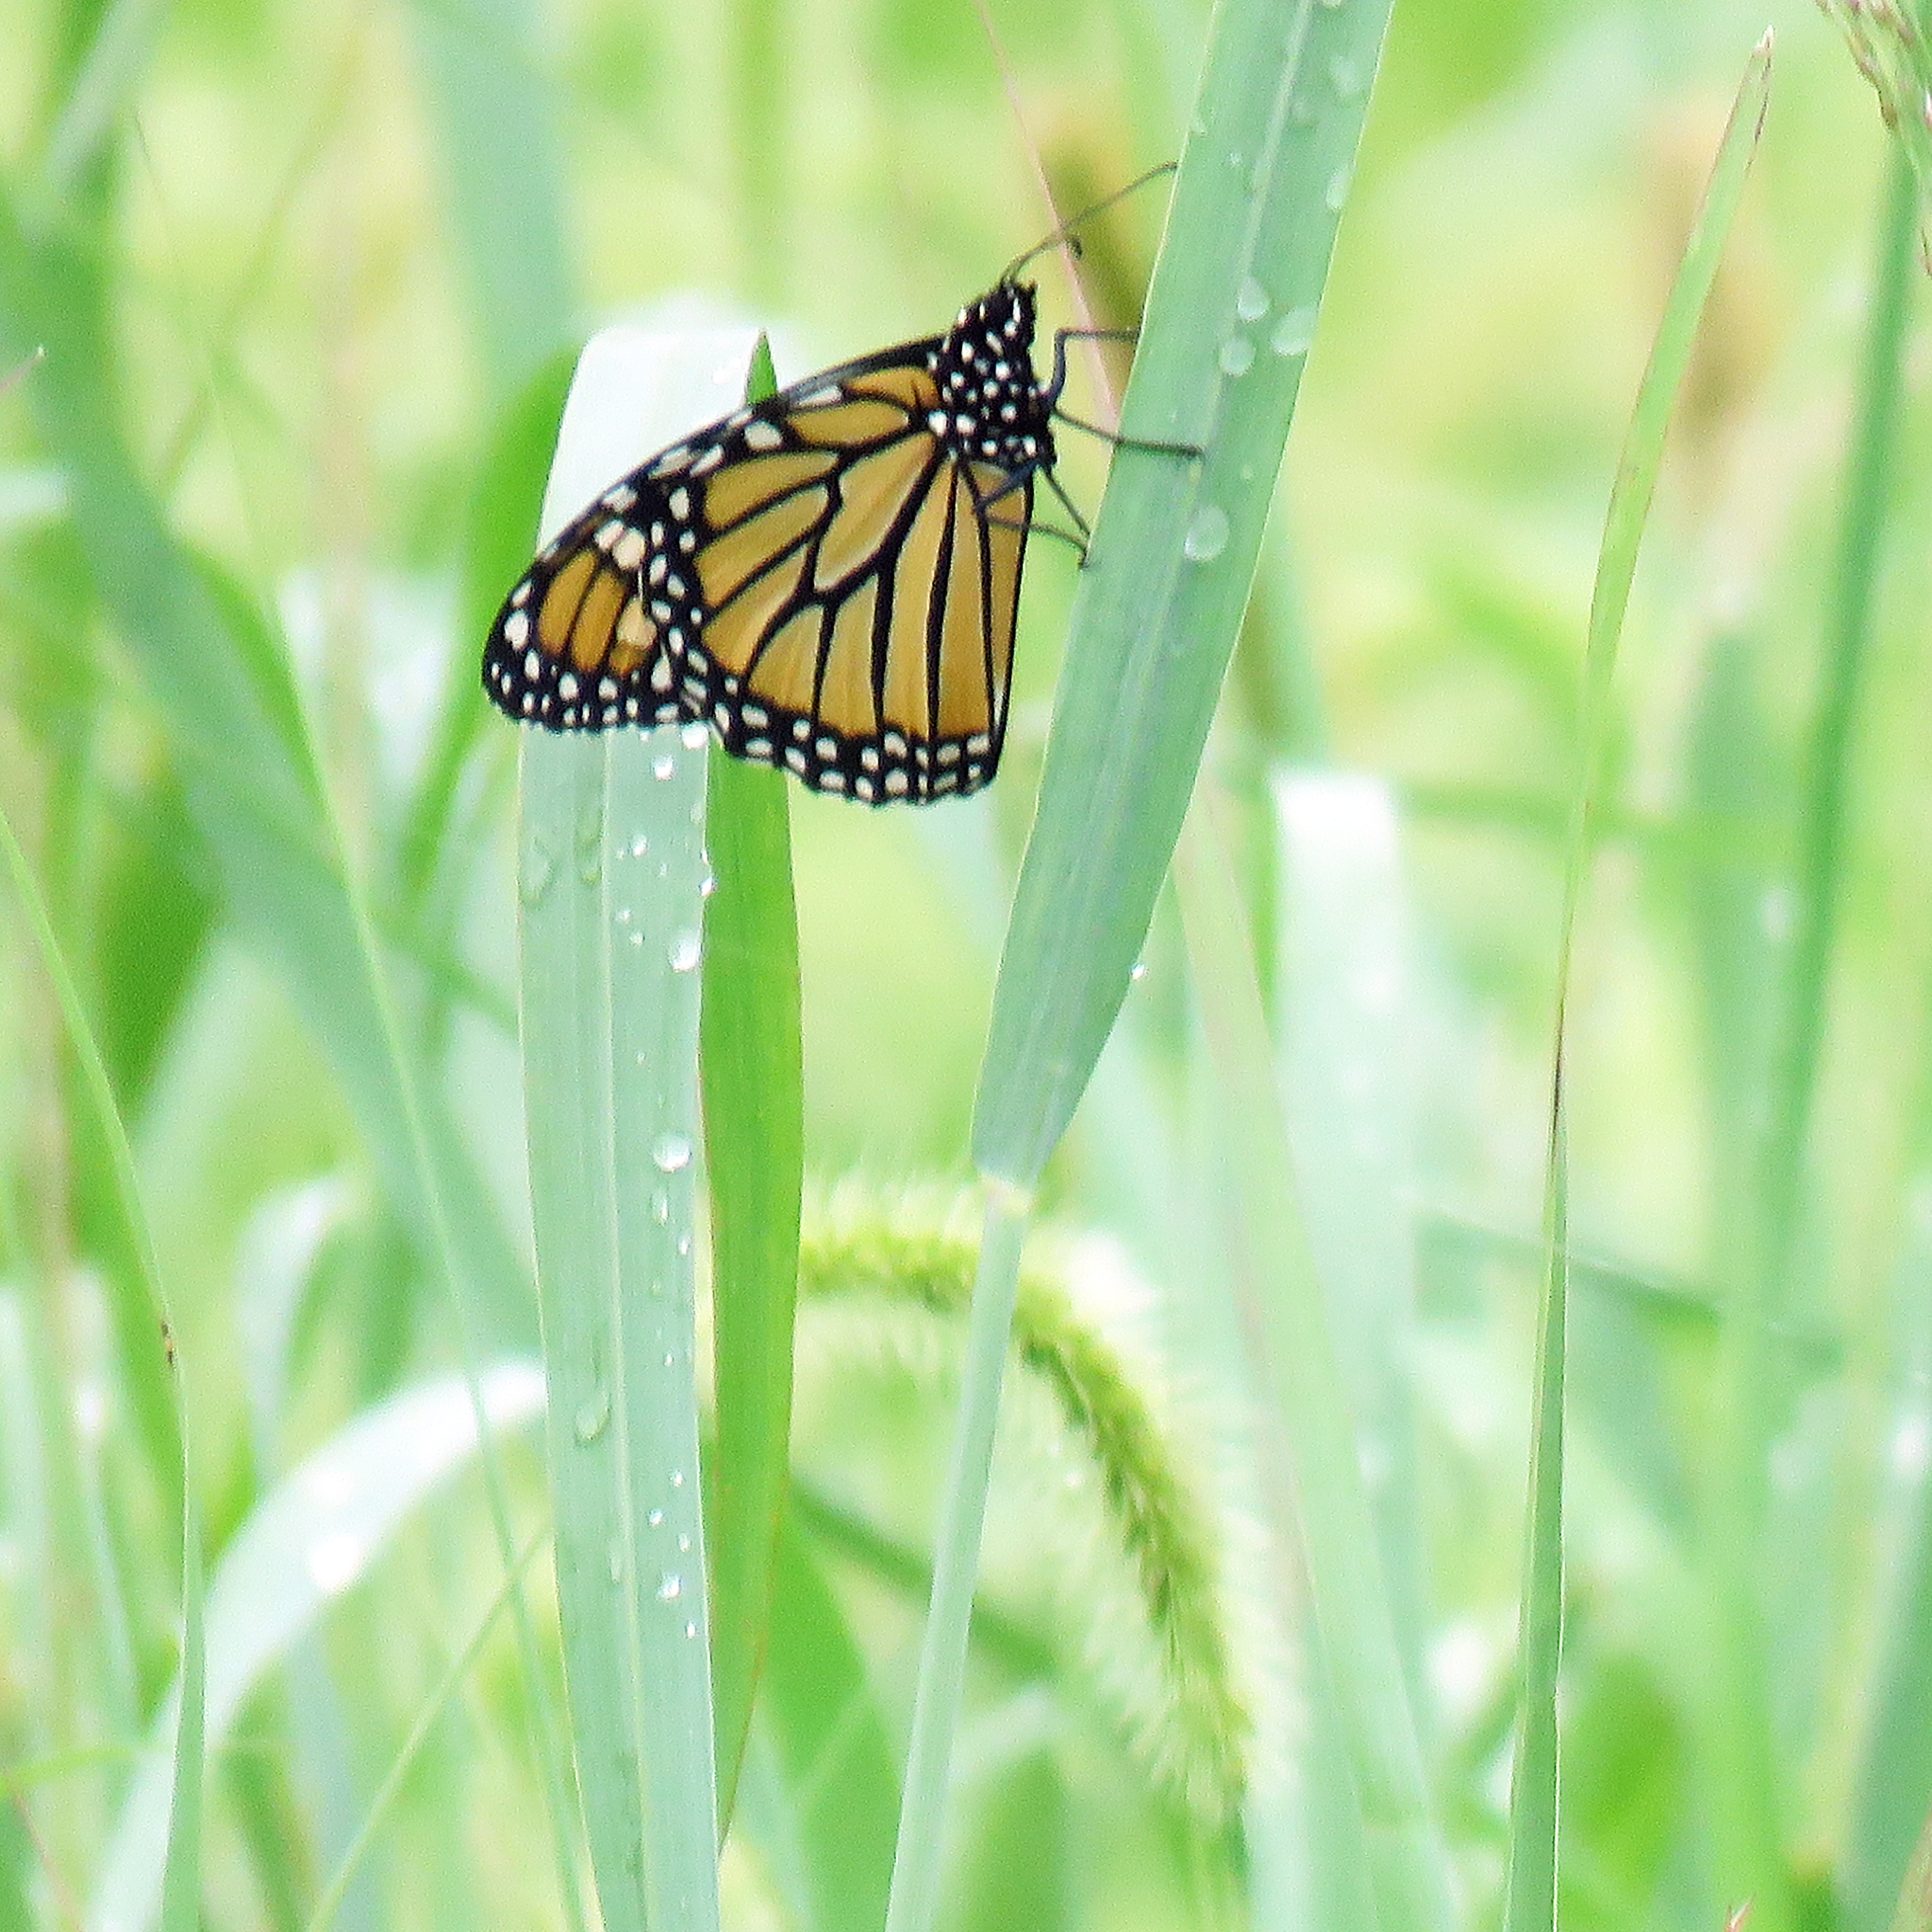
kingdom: Animalia
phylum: Arthropoda
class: Insecta
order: Lepidoptera
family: Nymphalidae
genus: Danaus
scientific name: Danaus plexippus
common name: Monarch
